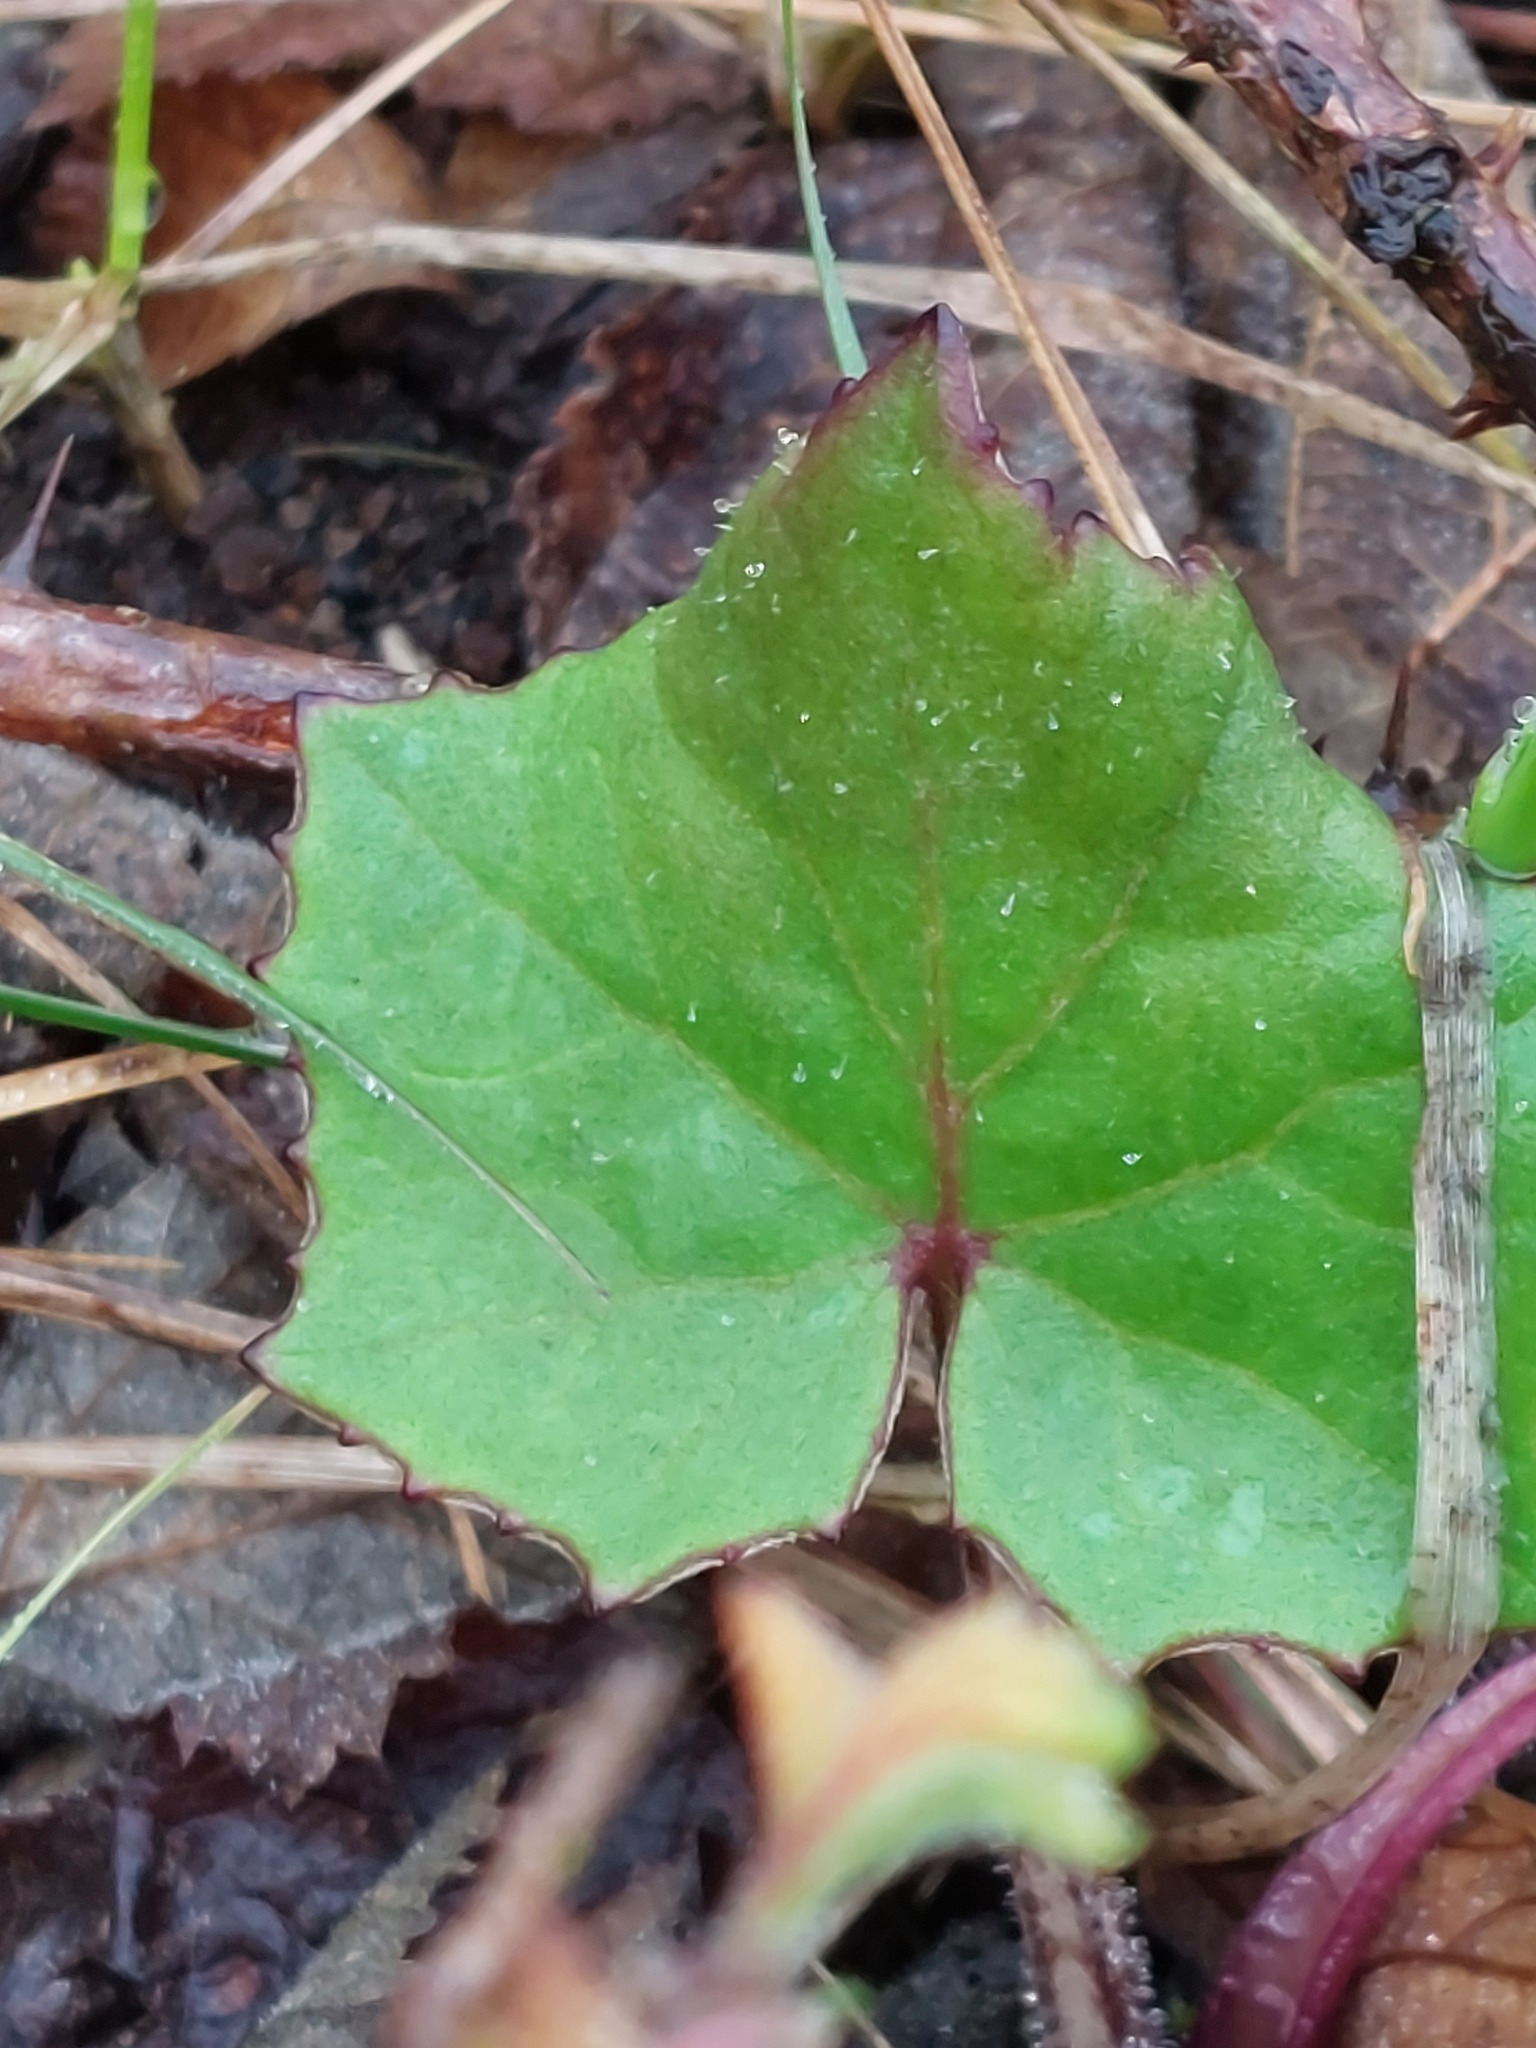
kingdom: Plantae
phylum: Tracheophyta
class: Magnoliopsida
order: Asterales
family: Asteraceae
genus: Tussilago
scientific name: Tussilago farfara
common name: Coltsfoot
